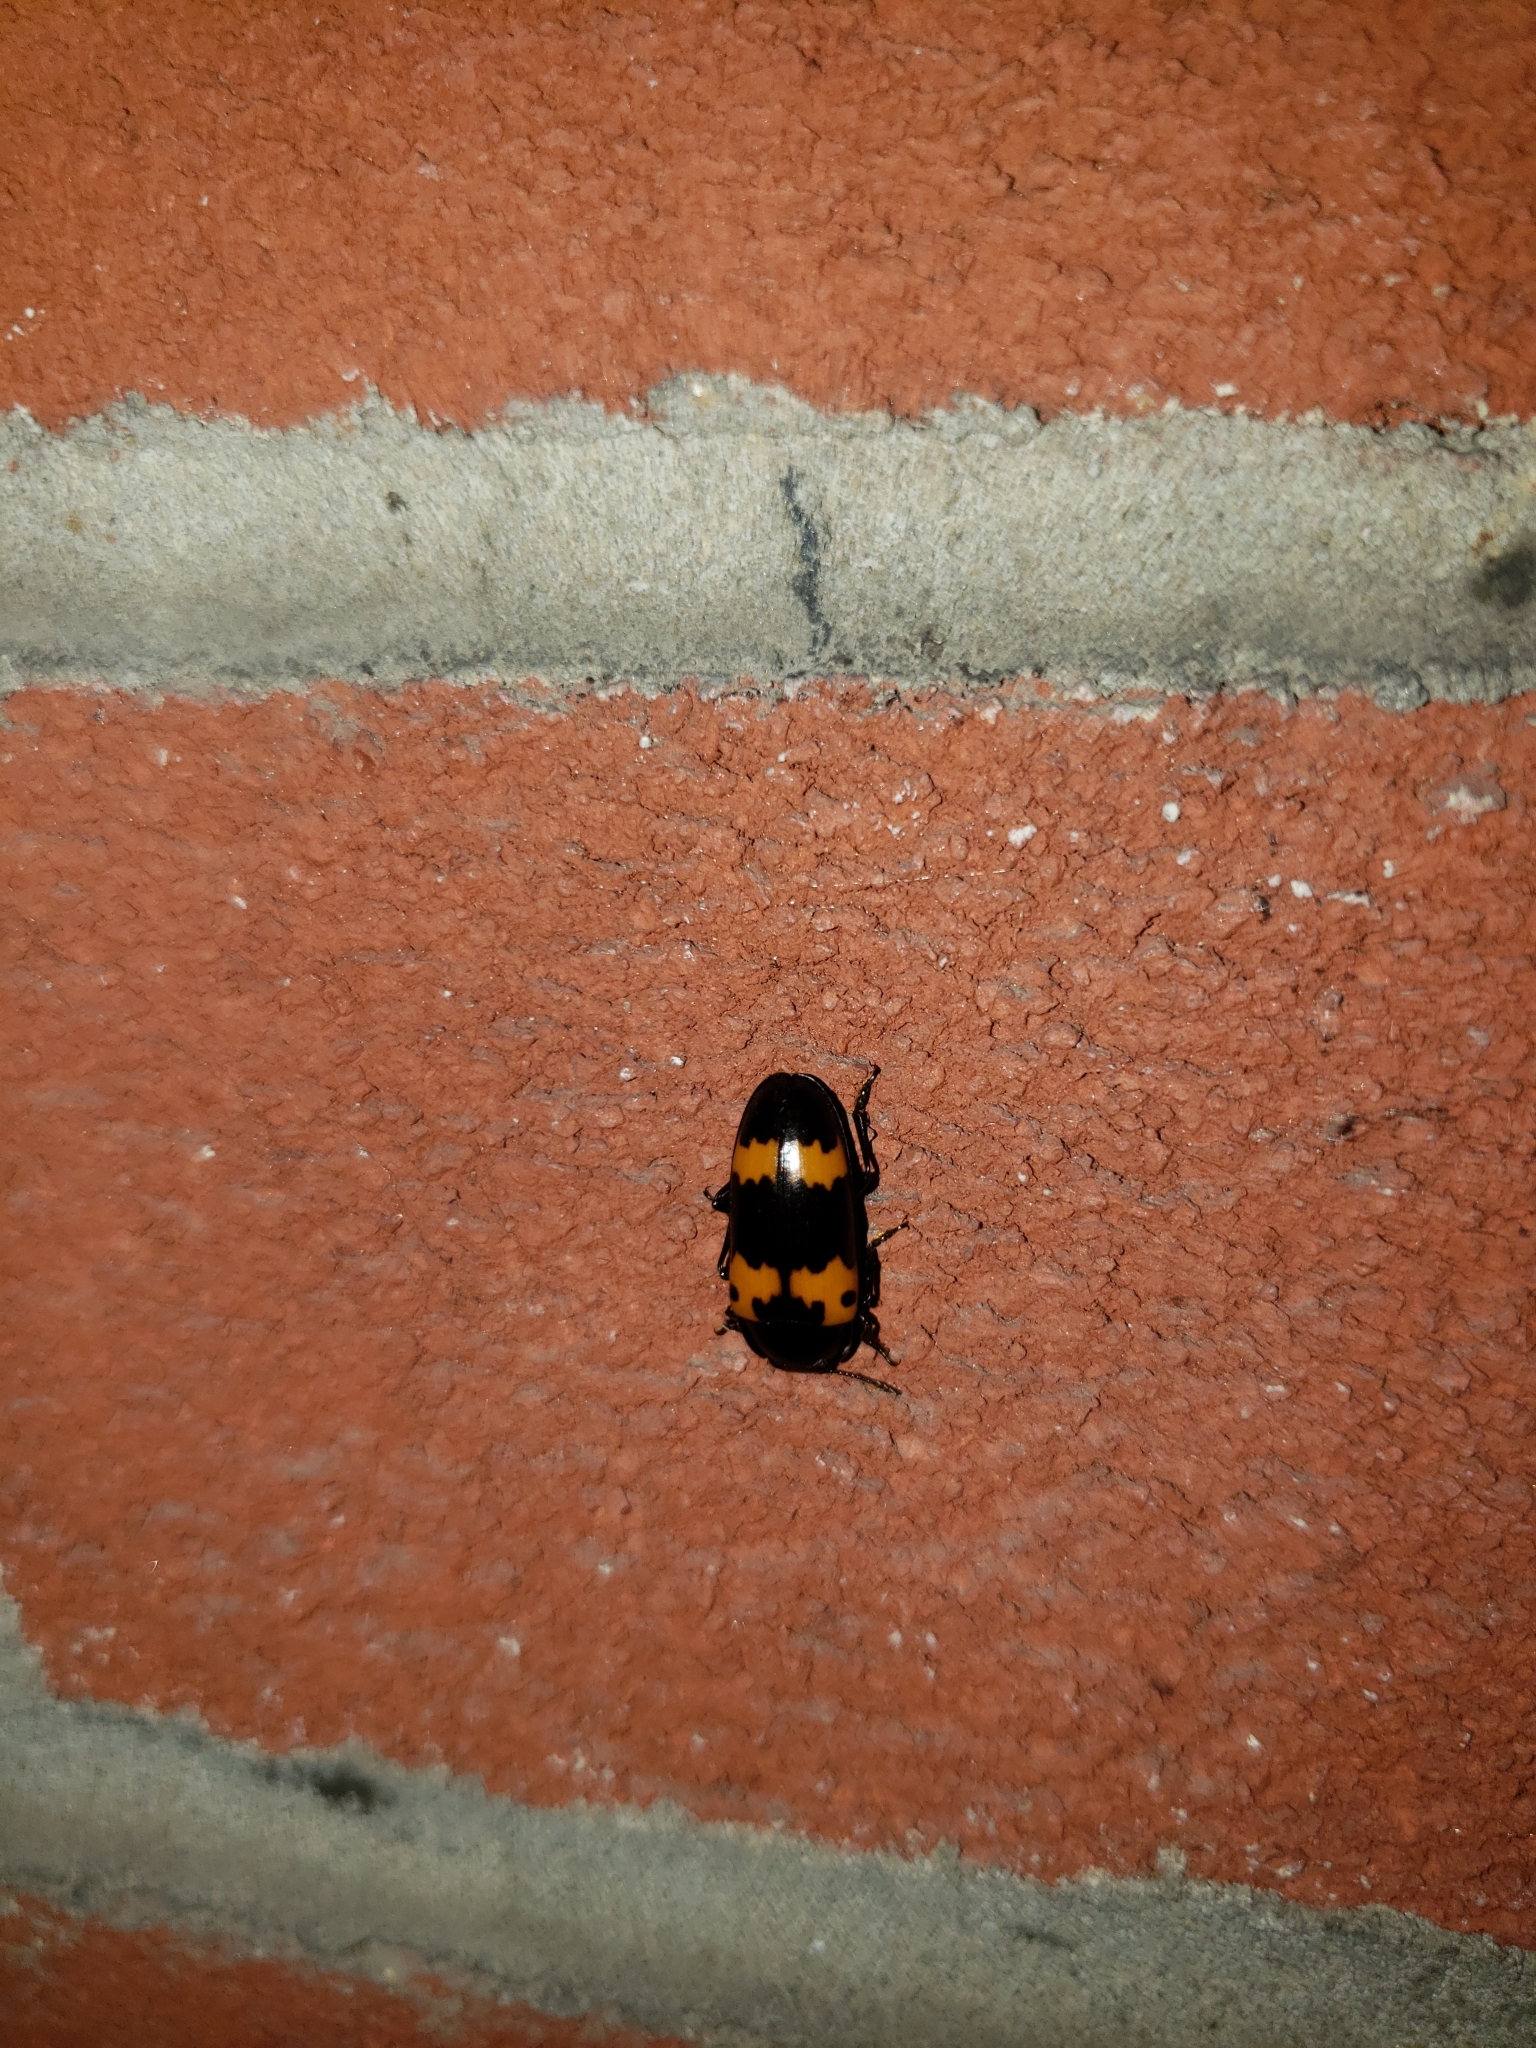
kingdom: Animalia
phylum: Arthropoda
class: Insecta
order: Coleoptera
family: Erotylidae
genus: Megalodacne
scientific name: Megalodacne fasciata
